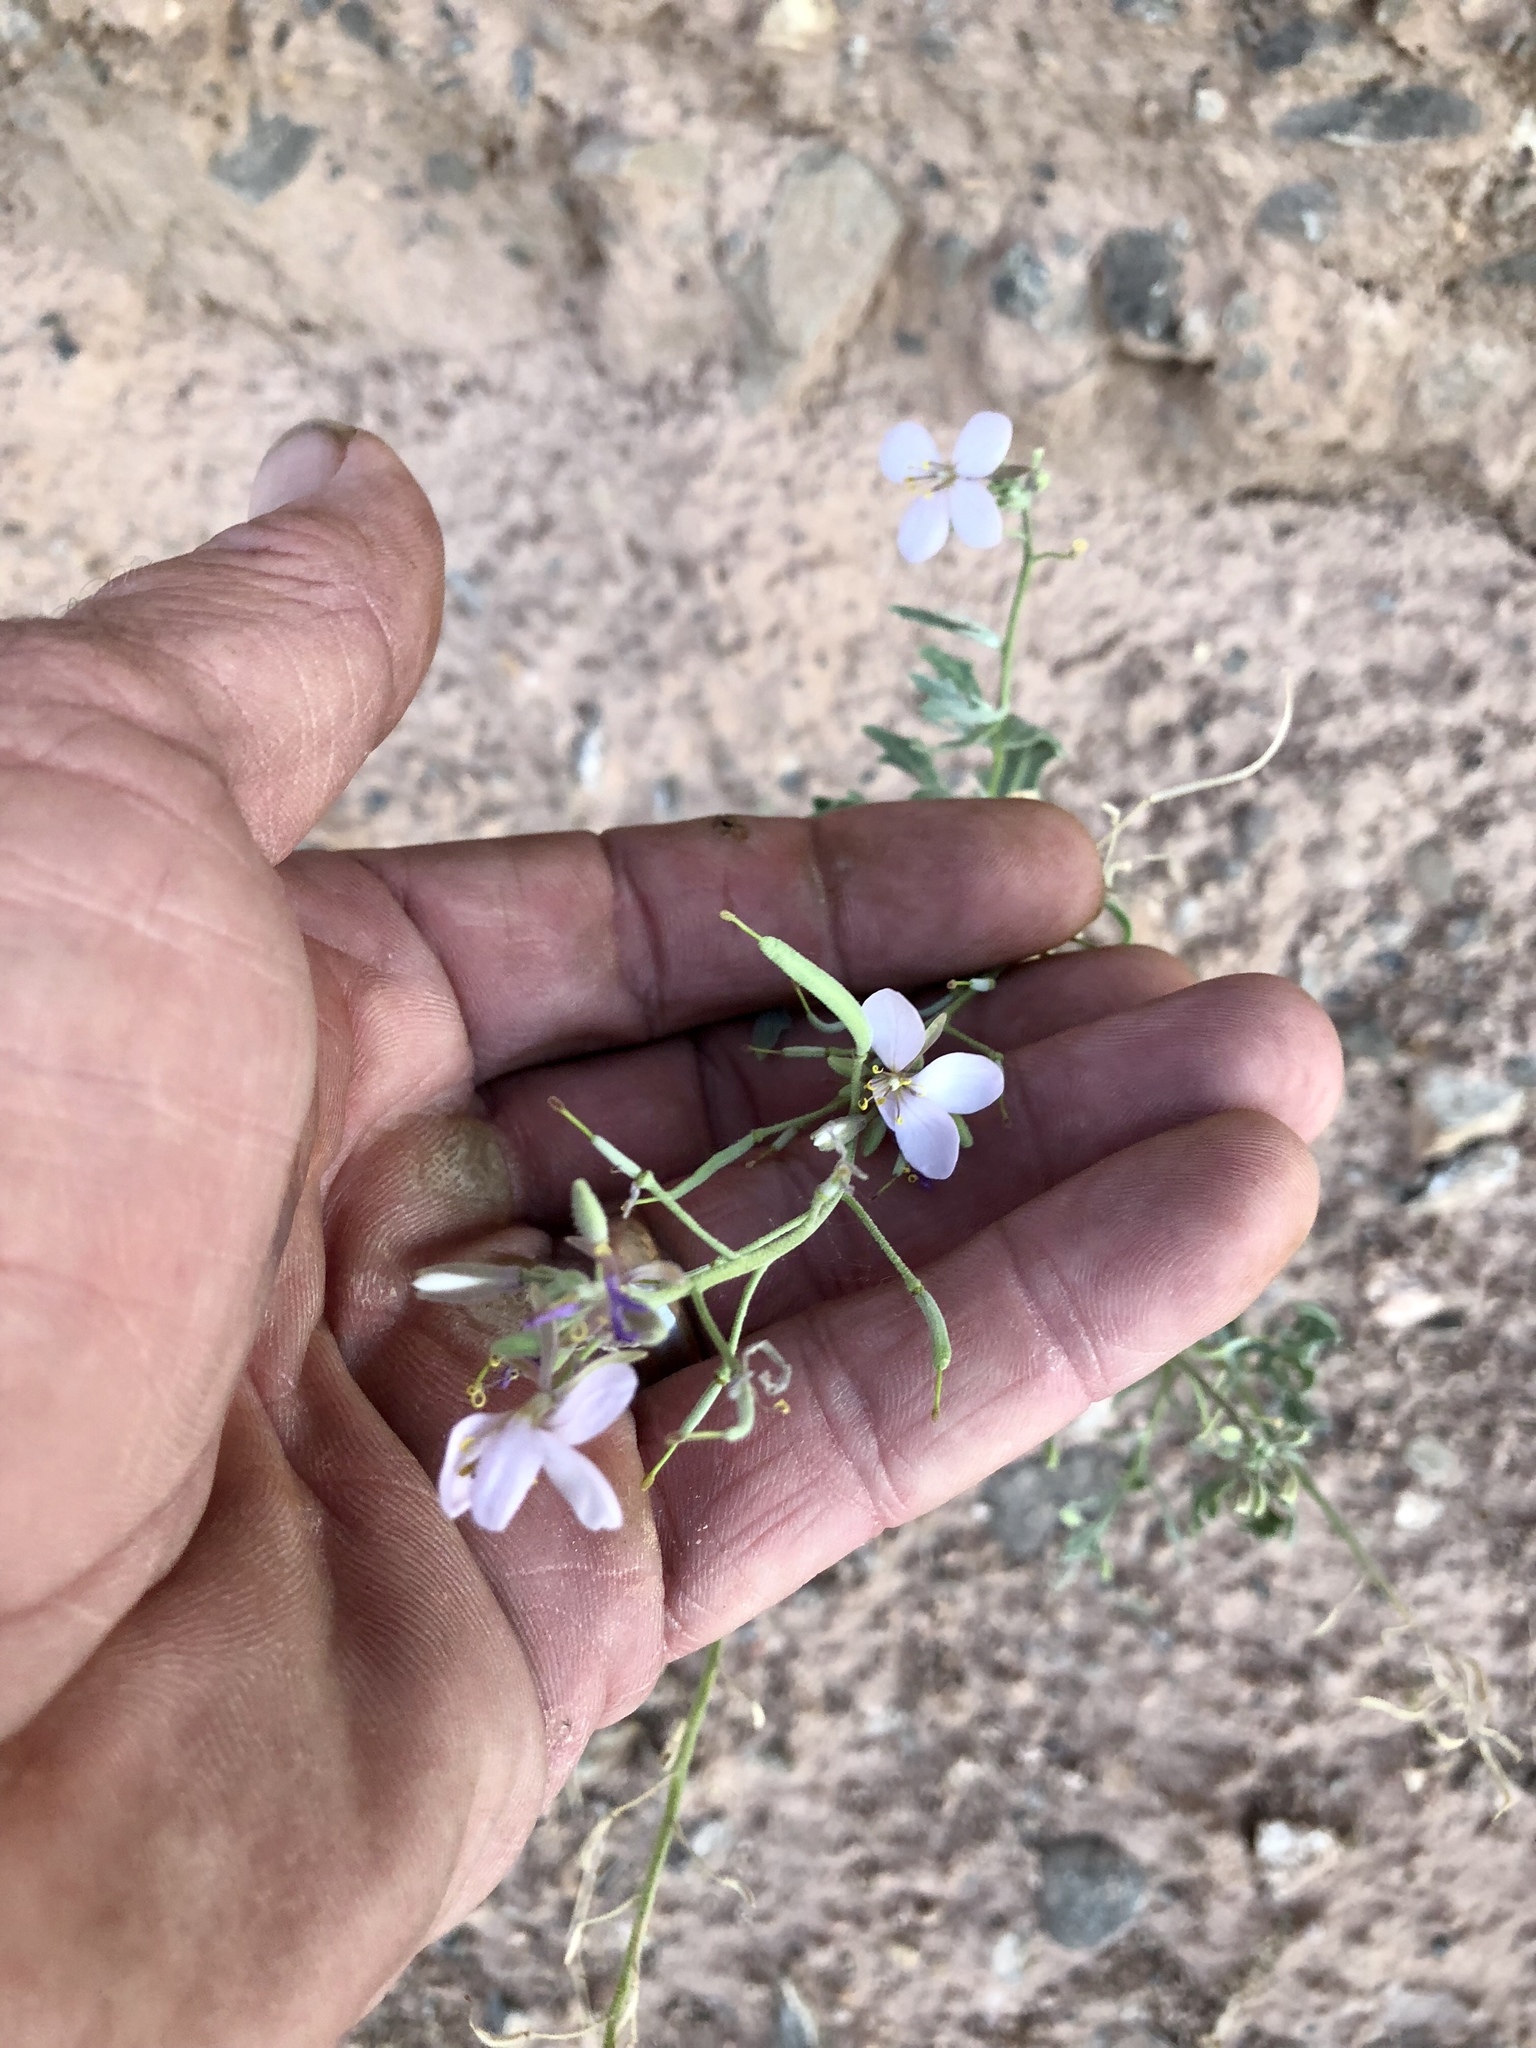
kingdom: Plantae
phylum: Tracheophyta
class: Magnoliopsida
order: Brassicales
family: Brassicaceae
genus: Nerisyrenia
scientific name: Nerisyrenia camporum
